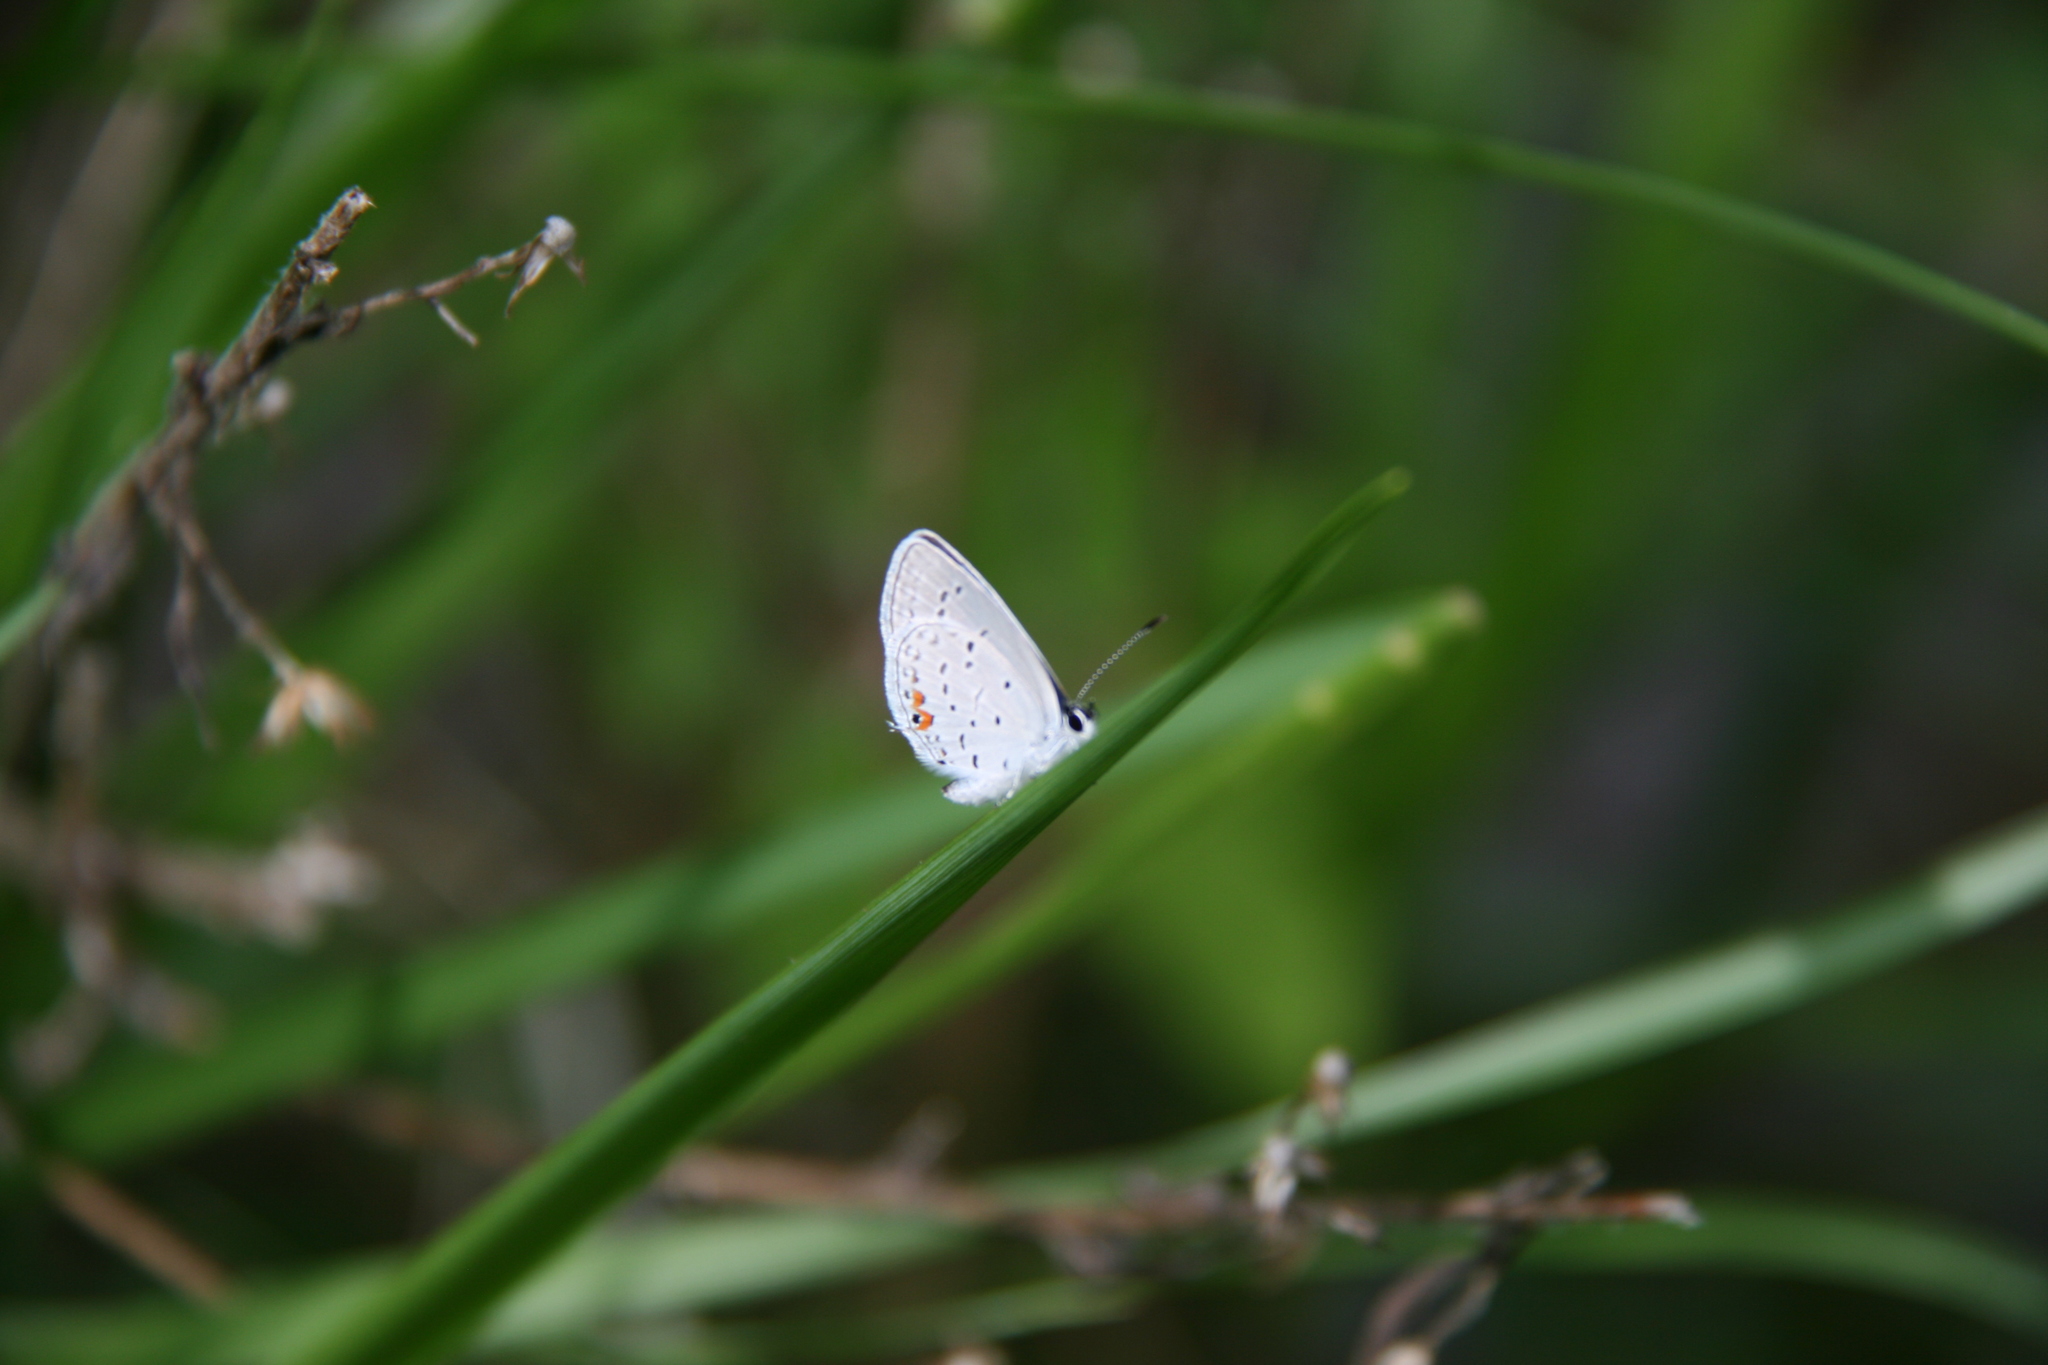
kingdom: Animalia
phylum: Arthropoda
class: Insecta
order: Lepidoptera
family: Lycaenidae
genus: Elkalyce
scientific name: Elkalyce comyntas
